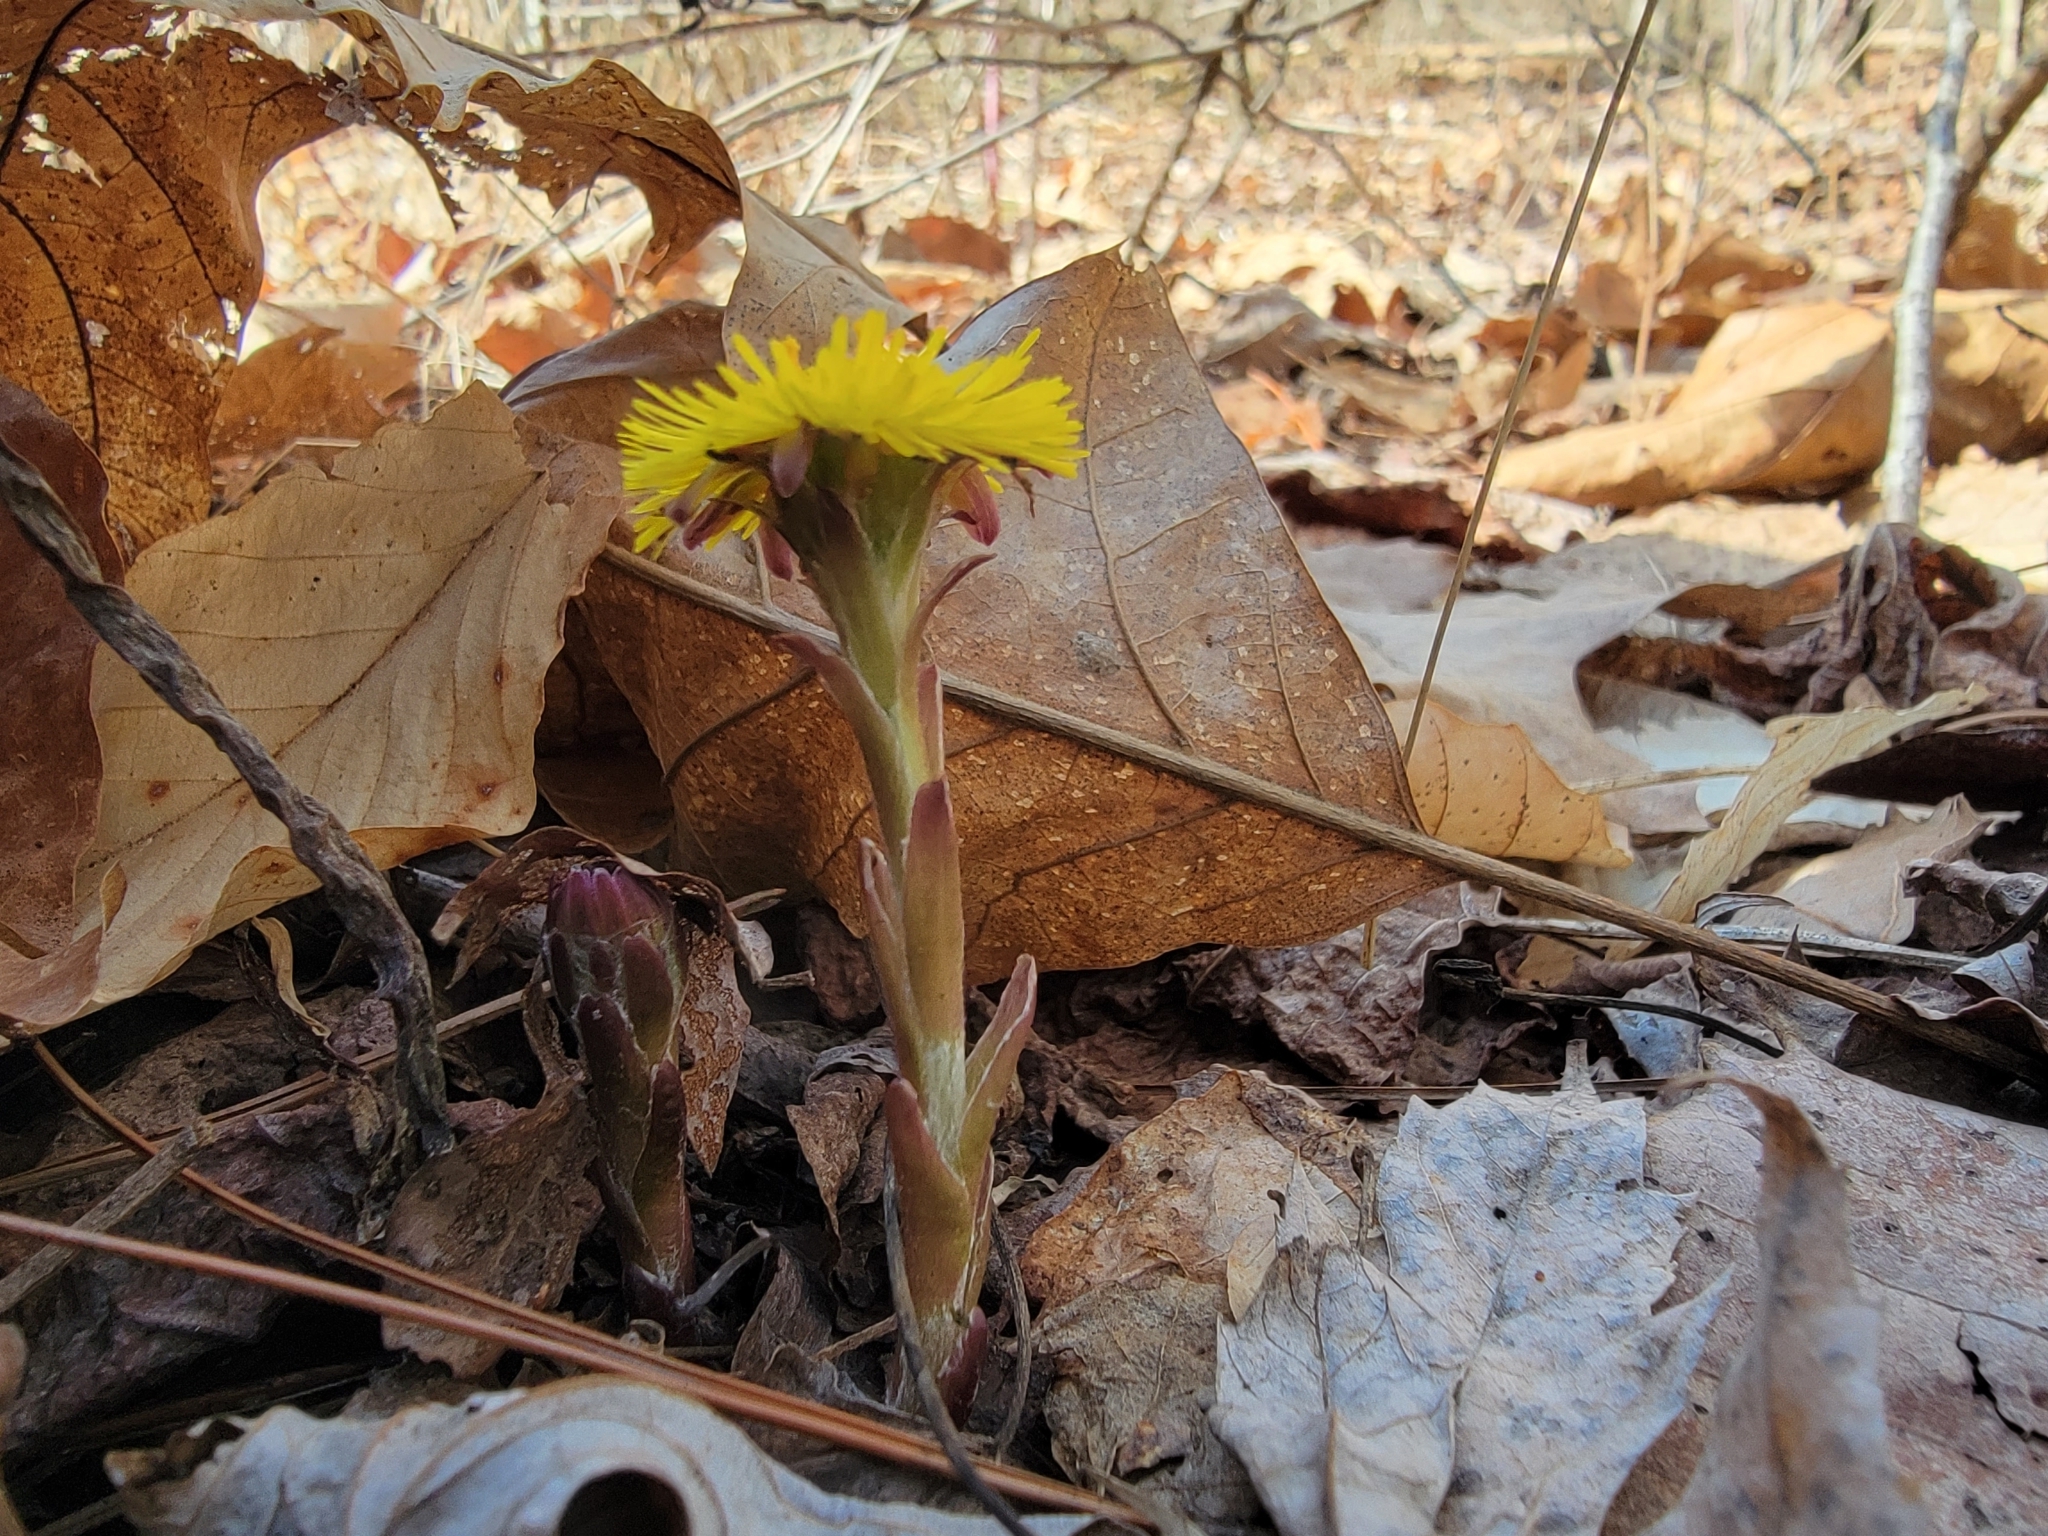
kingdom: Plantae
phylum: Tracheophyta
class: Magnoliopsida
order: Asterales
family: Asteraceae
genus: Tussilago
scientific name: Tussilago farfara
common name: Coltsfoot
